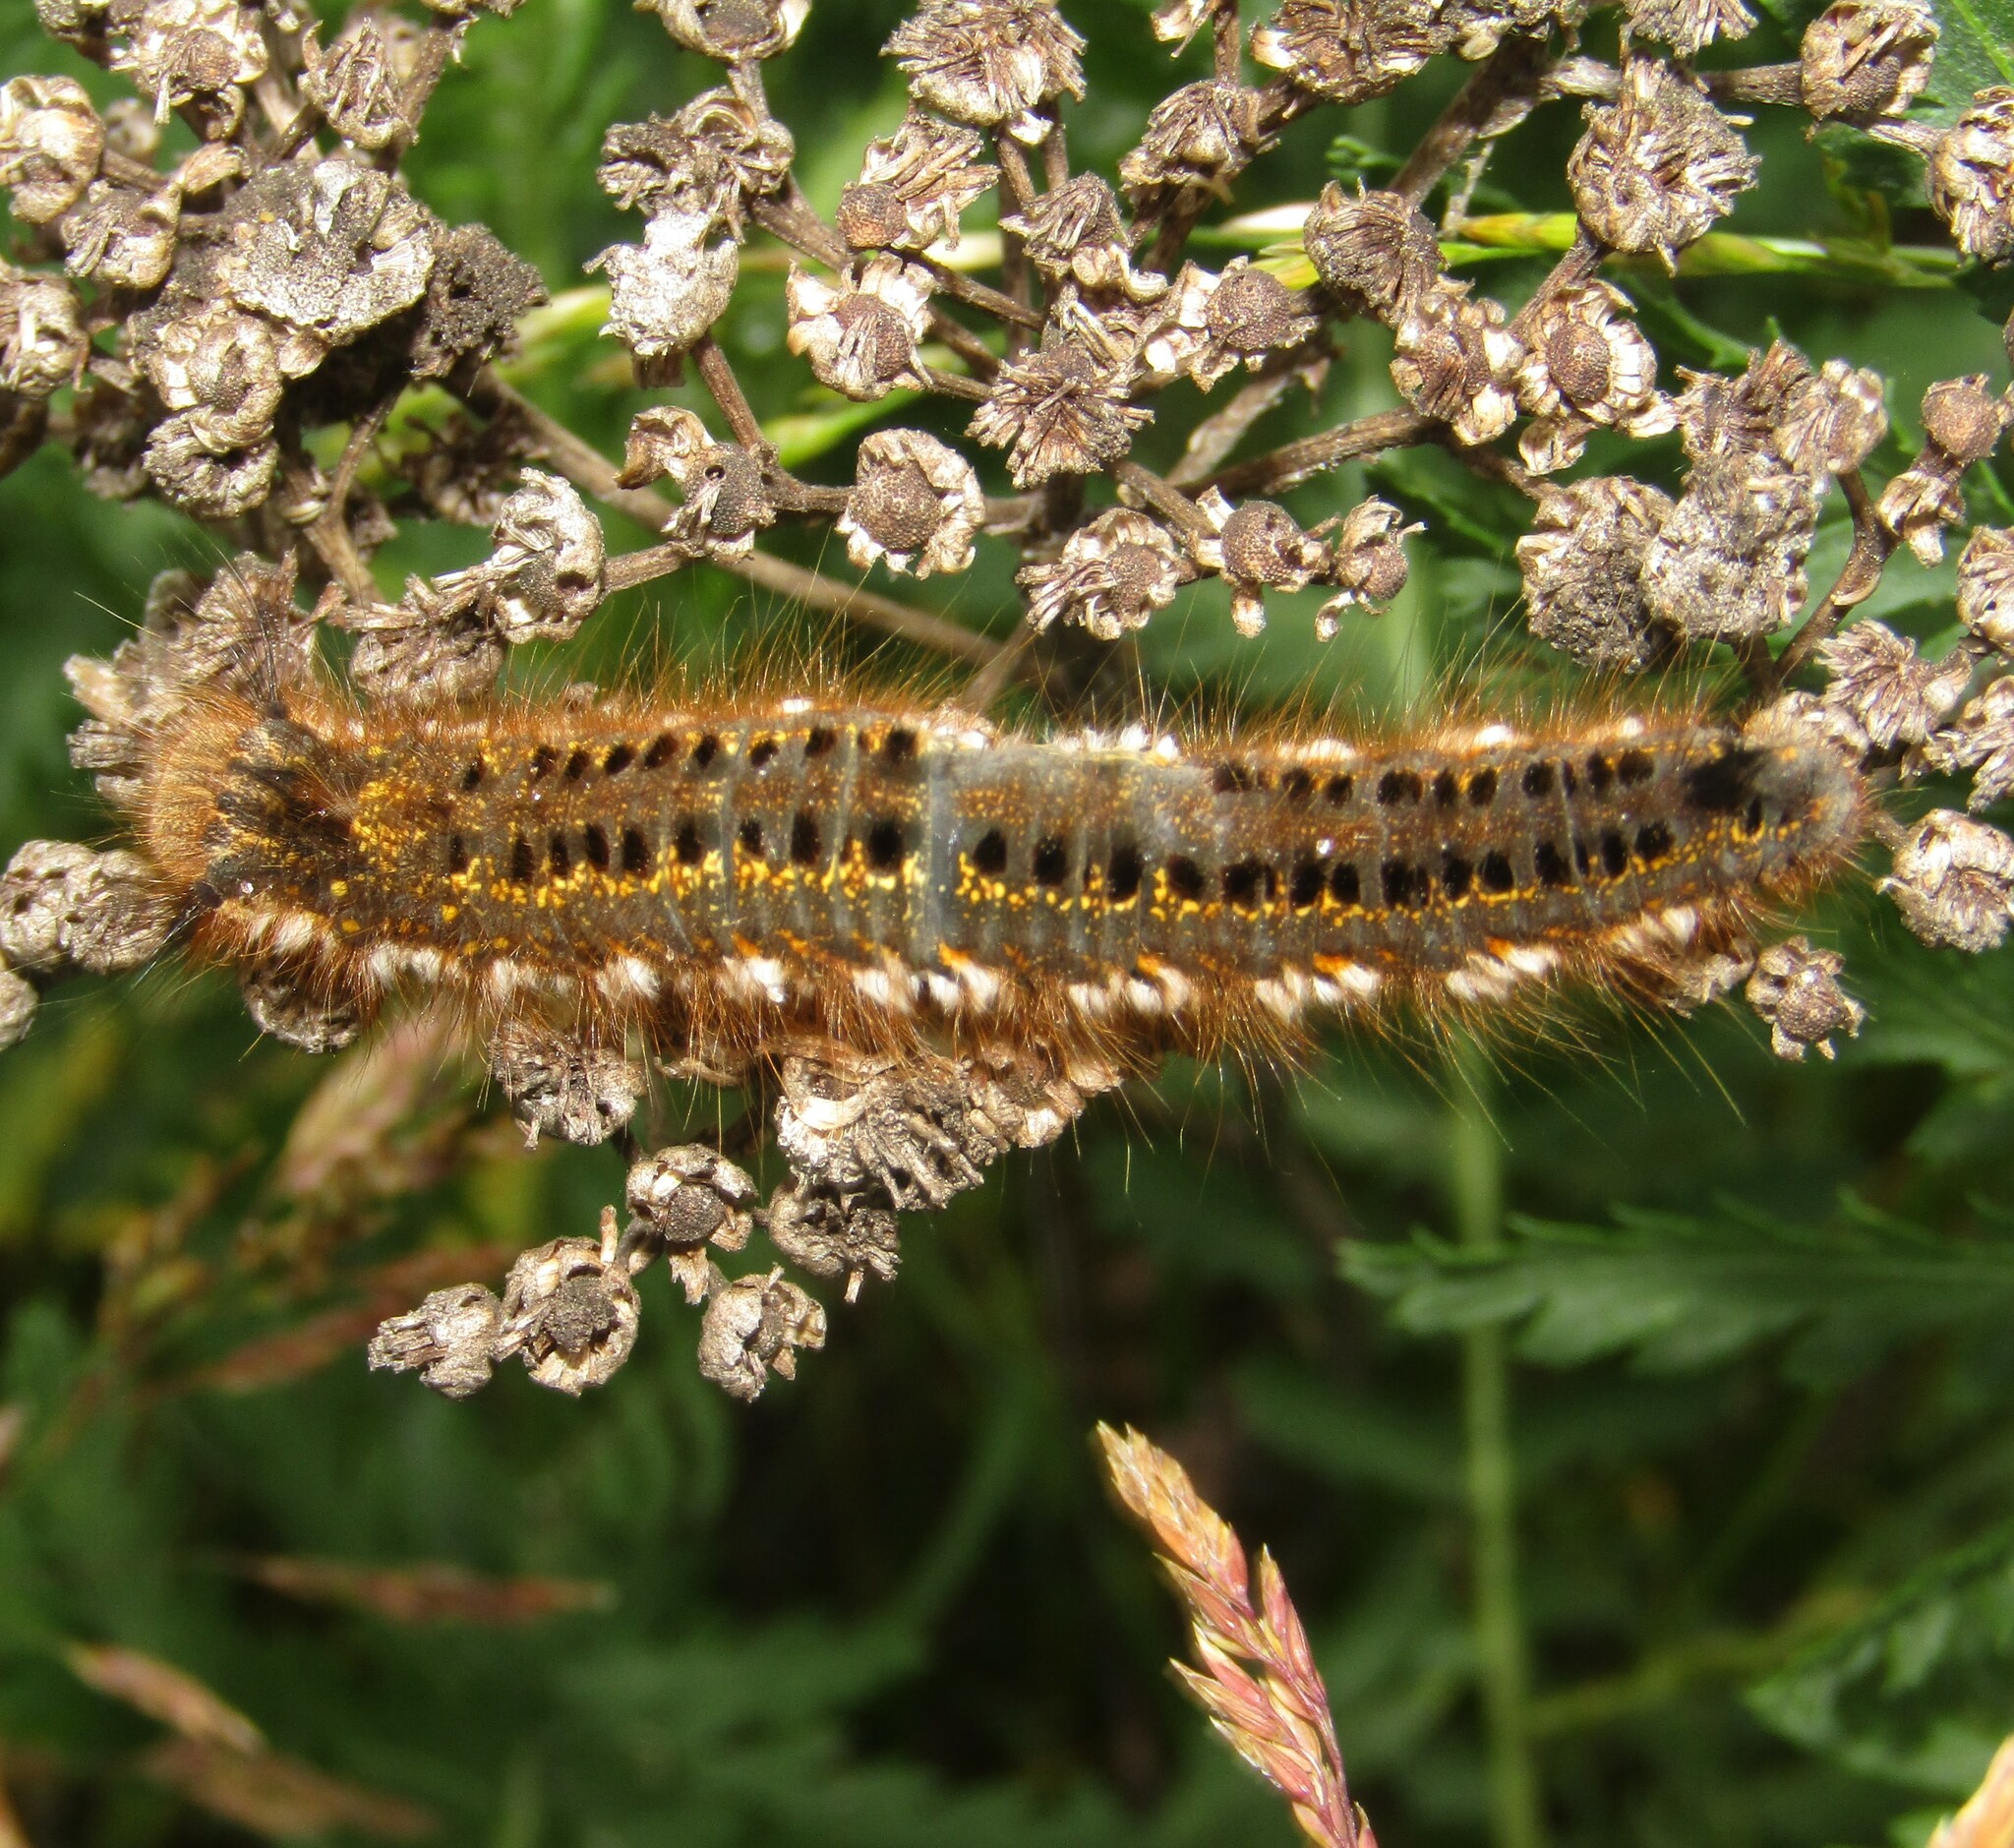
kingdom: Animalia
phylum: Arthropoda
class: Insecta
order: Lepidoptera
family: Lasiocampidae
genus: Euthrix
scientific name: Euthrix potatoria
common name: Drinker
